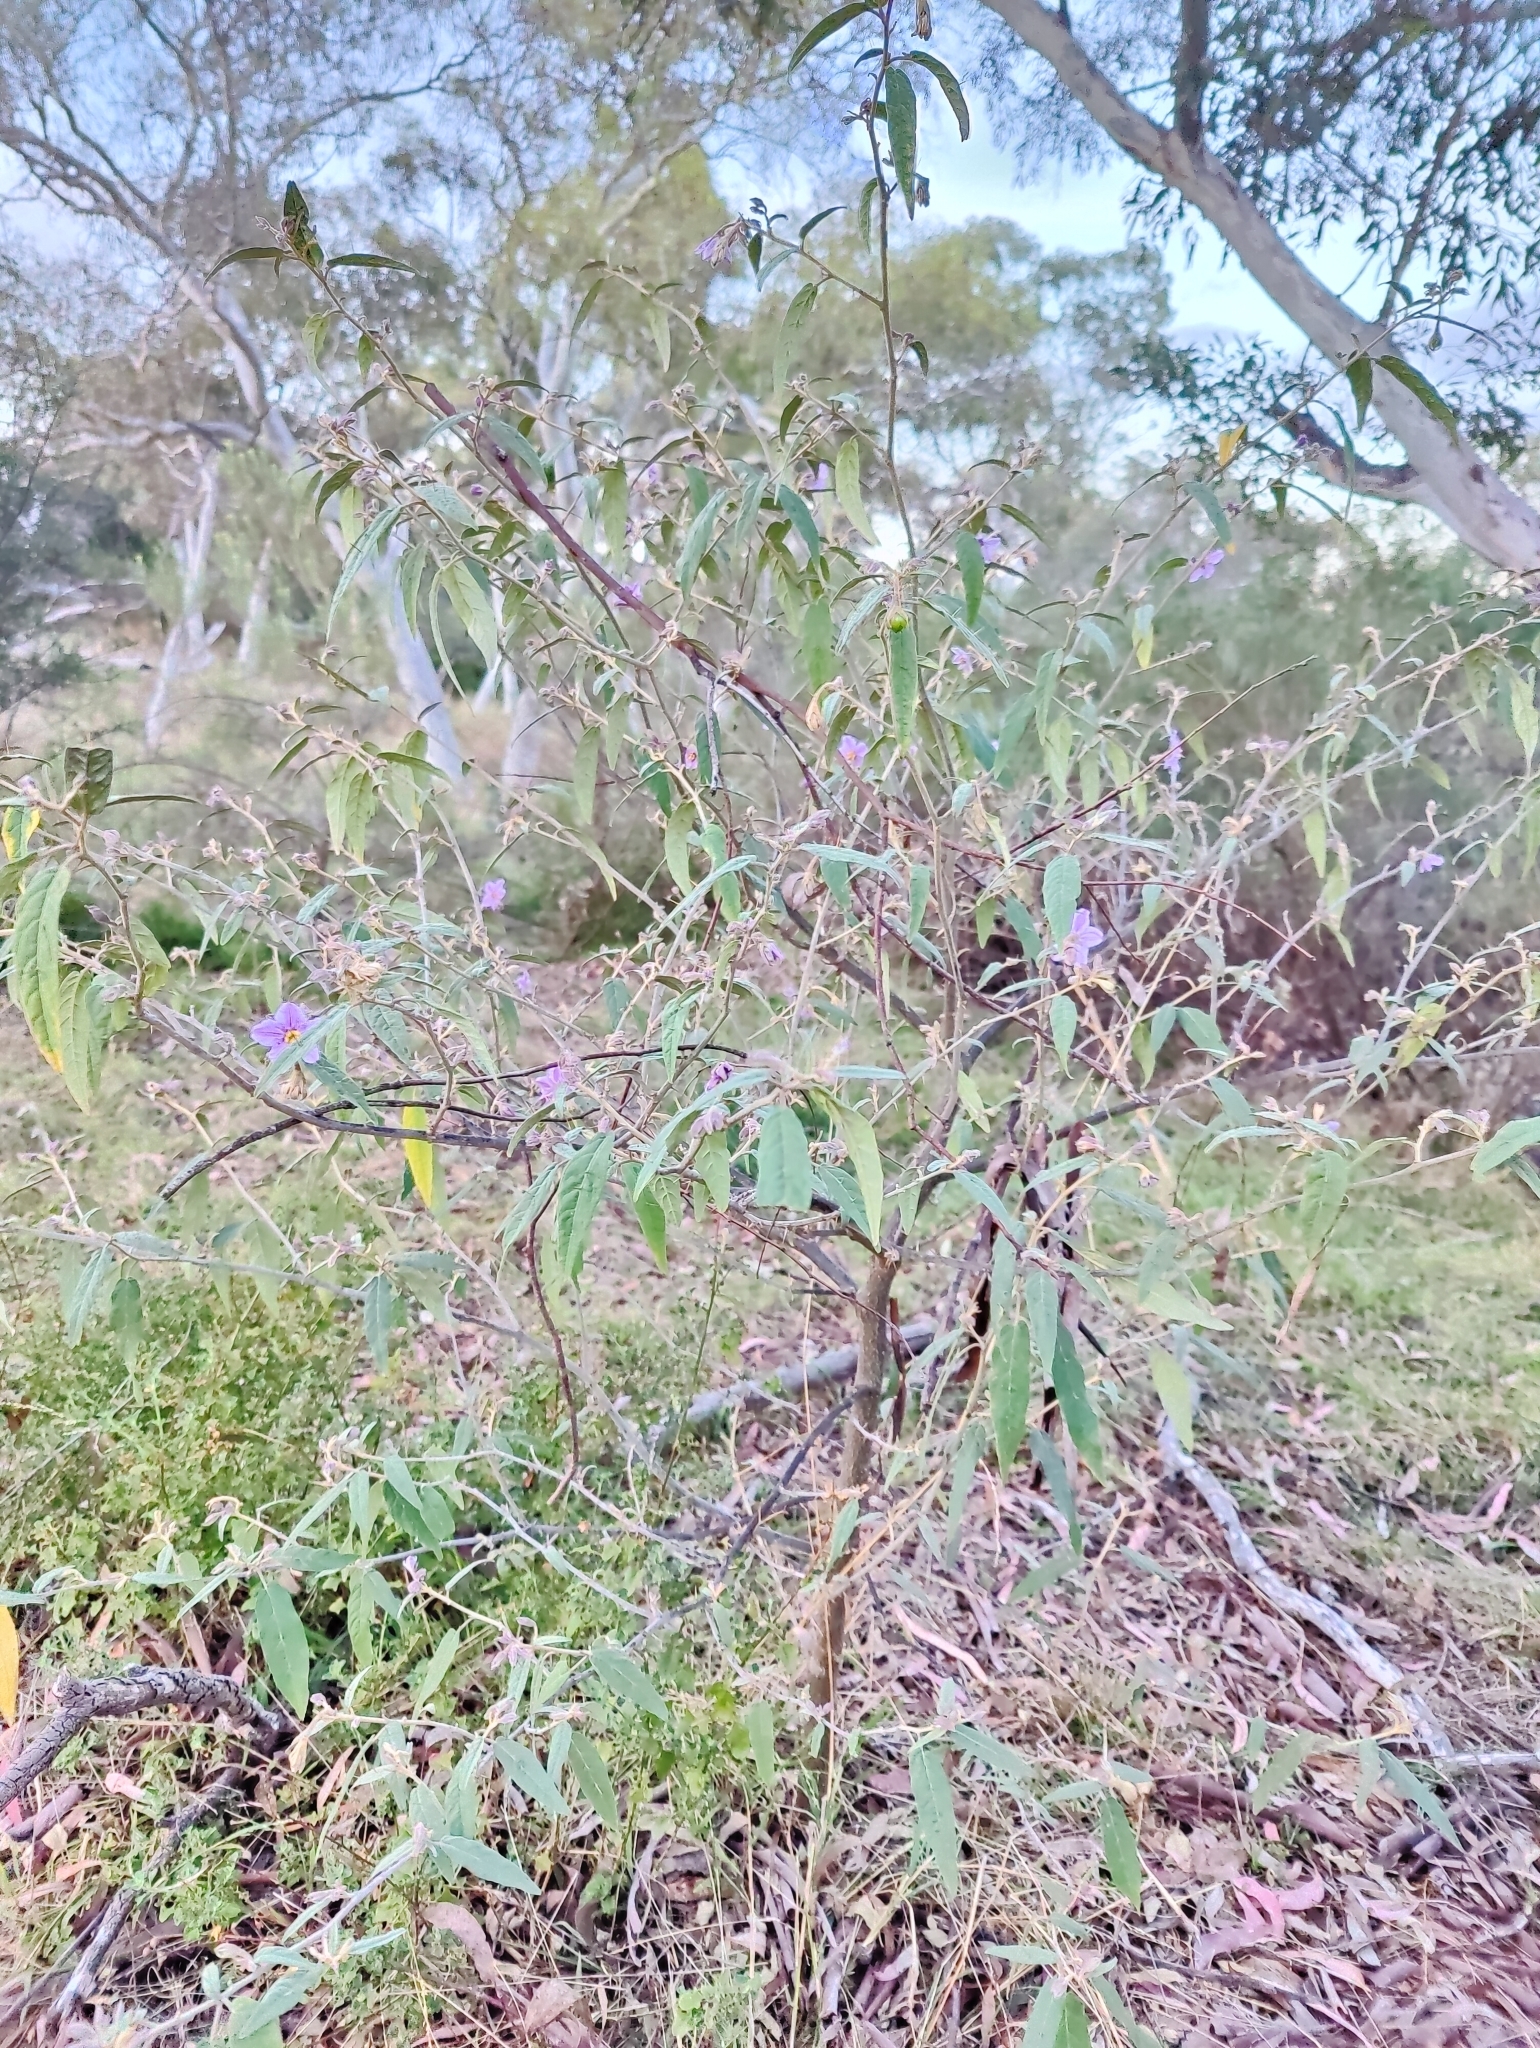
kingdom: Plantae
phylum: Tracheophyta
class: Magnoliopsida
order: Solanales
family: Solanaceae
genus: Solanum
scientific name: Solanum cinereum
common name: Narrawa-bur
